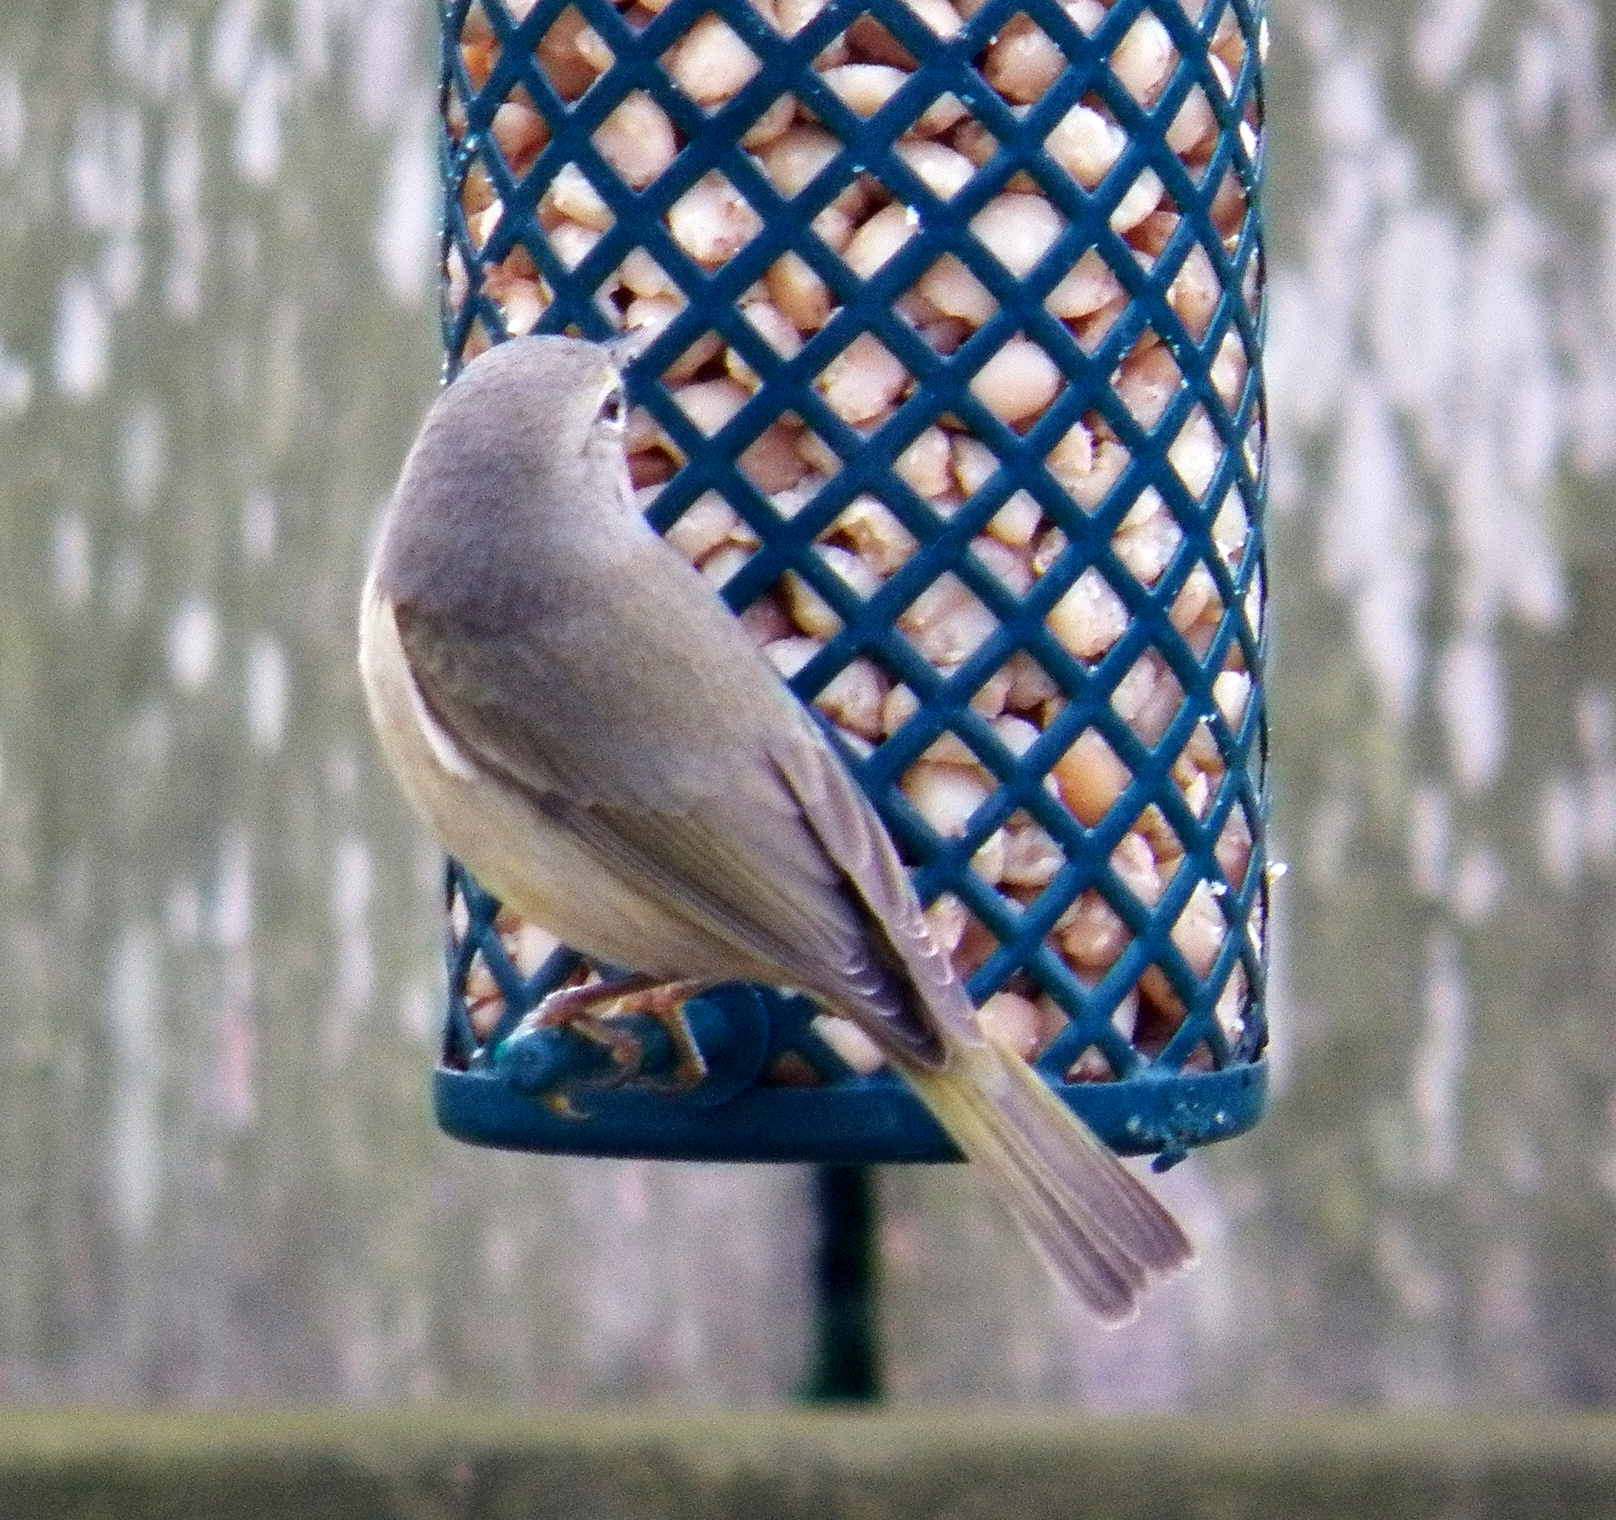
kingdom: Animalia
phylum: Chordata
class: Aves
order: Passeriformes
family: Parulidae
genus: Leiothlypis
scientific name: Leiothlypis celata
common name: Orange-crowned warbler
